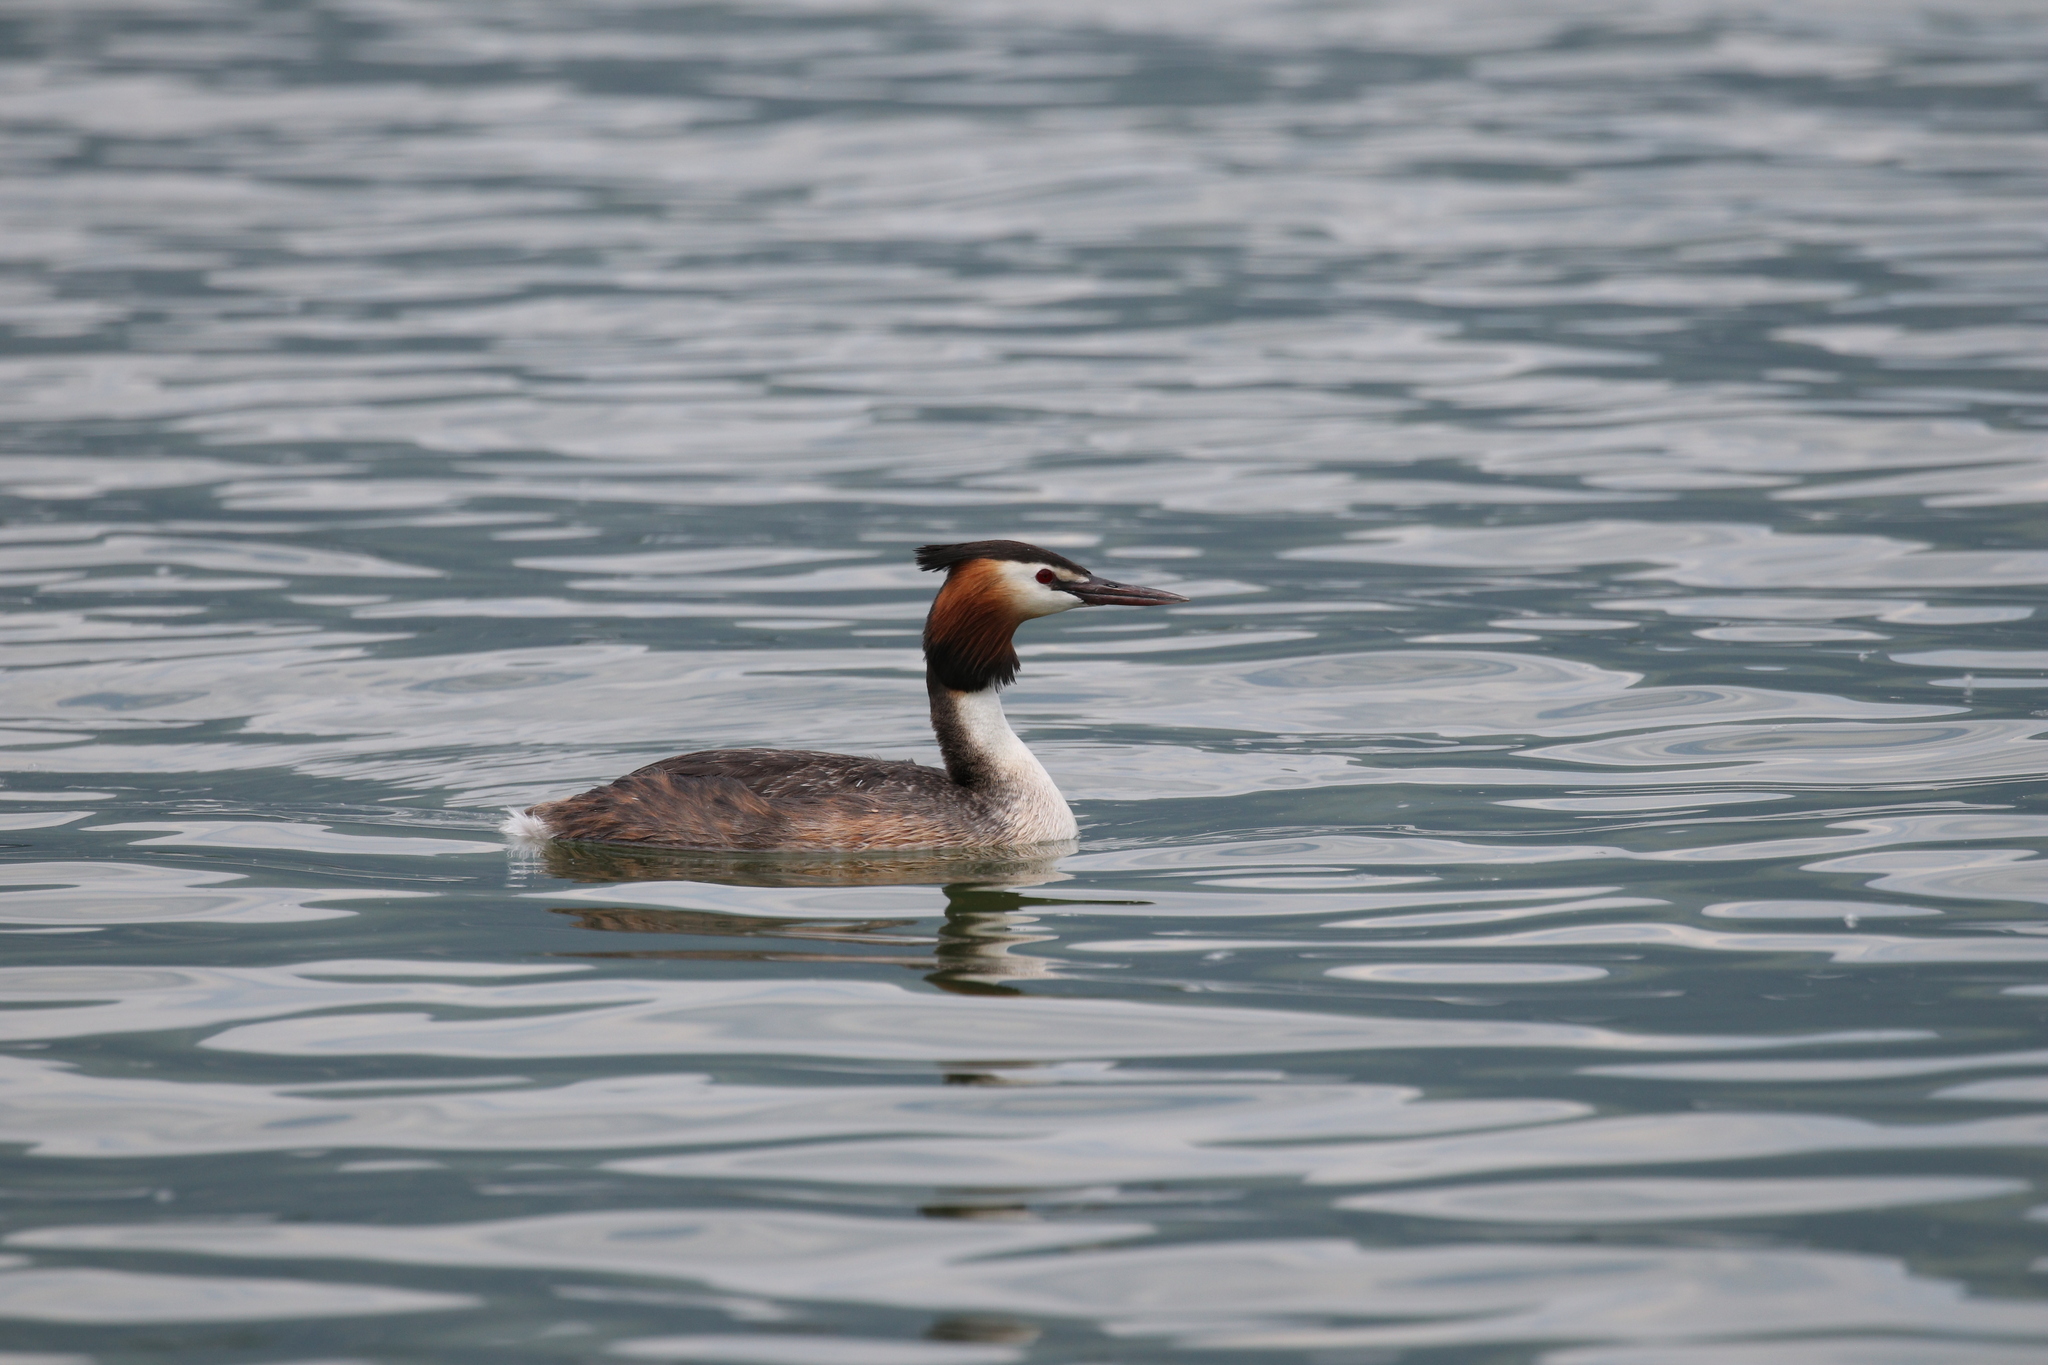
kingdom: Animalia
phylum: Chordata
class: Aves
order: Podicipediformes
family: Podicipedidae
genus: Podiceps
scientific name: Podiceps cristatus
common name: Great crested grebe
